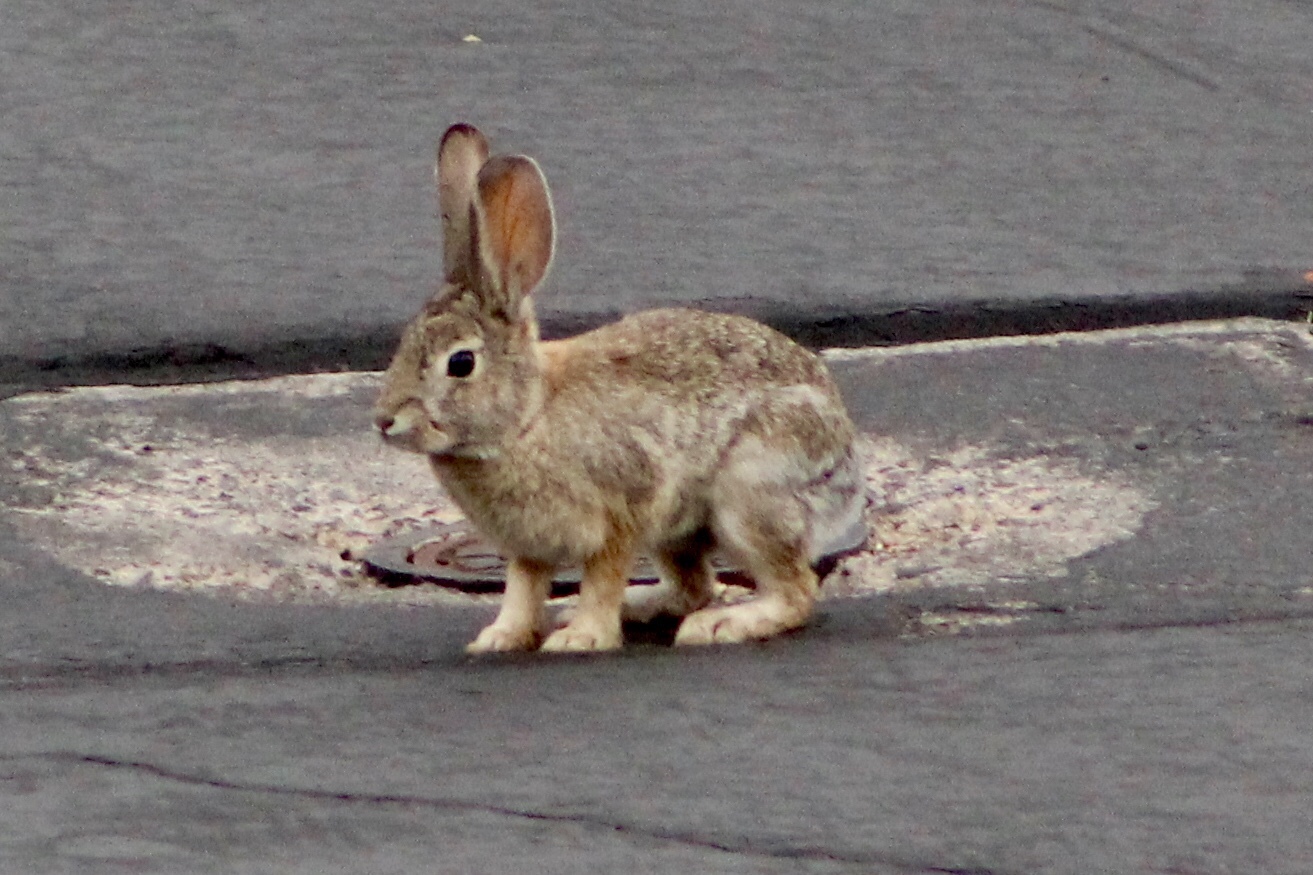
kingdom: Animalia
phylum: Chordata
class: Mammalia
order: Lagomorpha
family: Leporidae
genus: Sylvilagus
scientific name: Sylvilagus audubonii
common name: Desert cottontail
